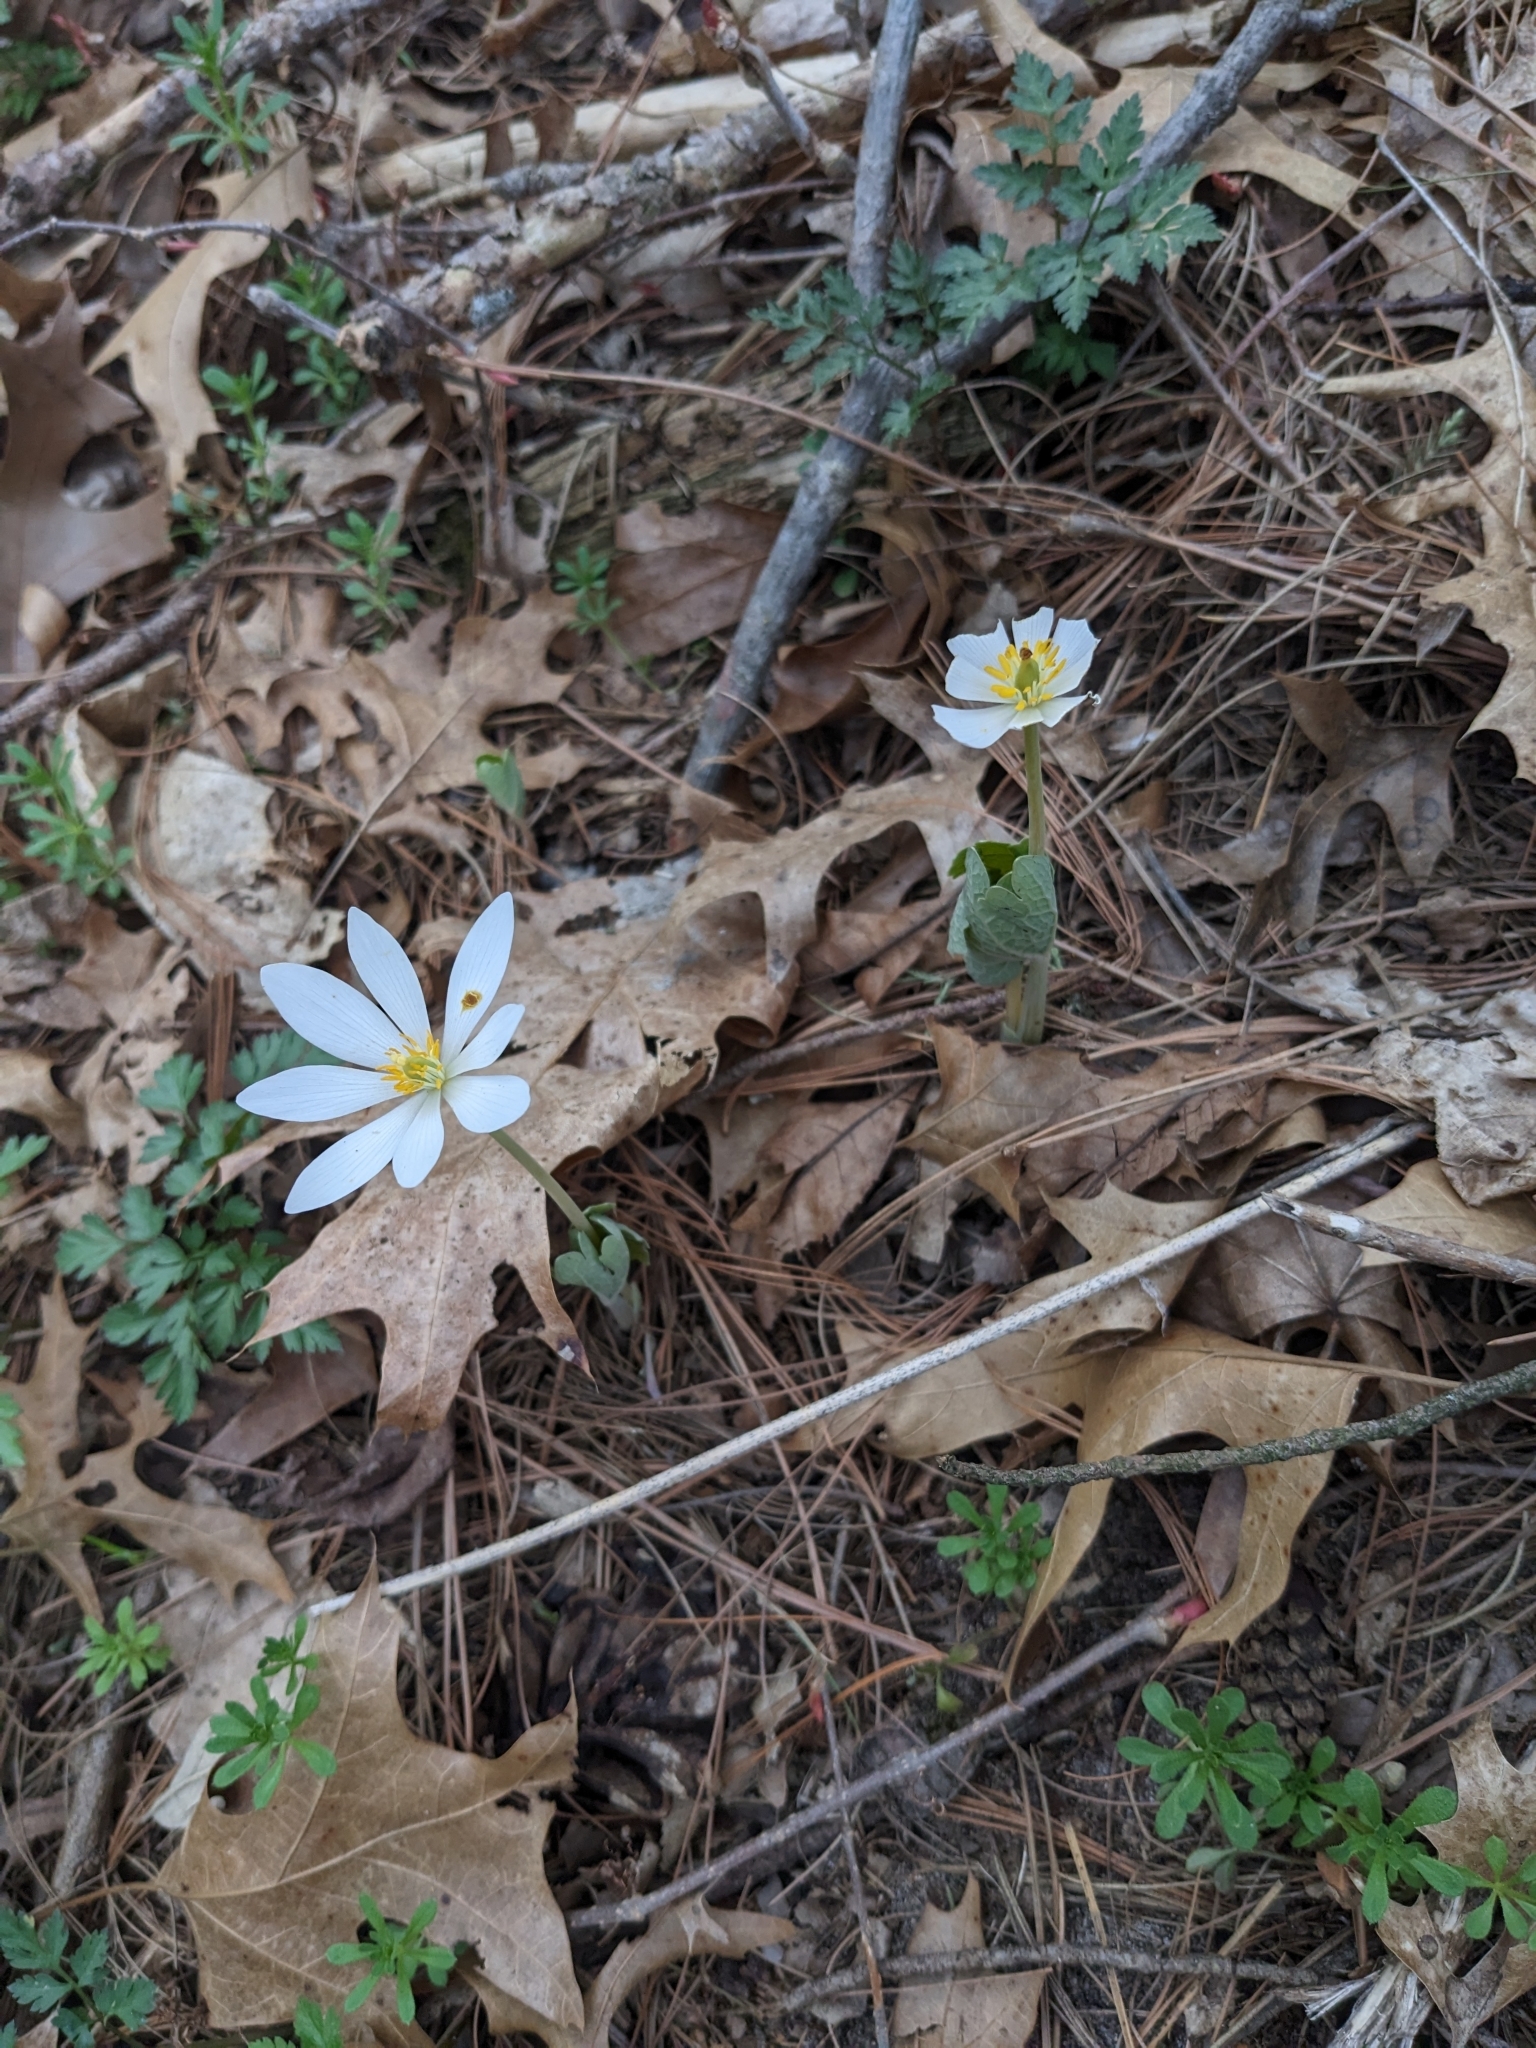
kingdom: Plantae
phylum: Tracheophyta
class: Magnoliopsida
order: Ranunculales
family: Papaveraceae
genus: Sanguinaria
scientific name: Sanguinaria canadensis
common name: Bloodroot
